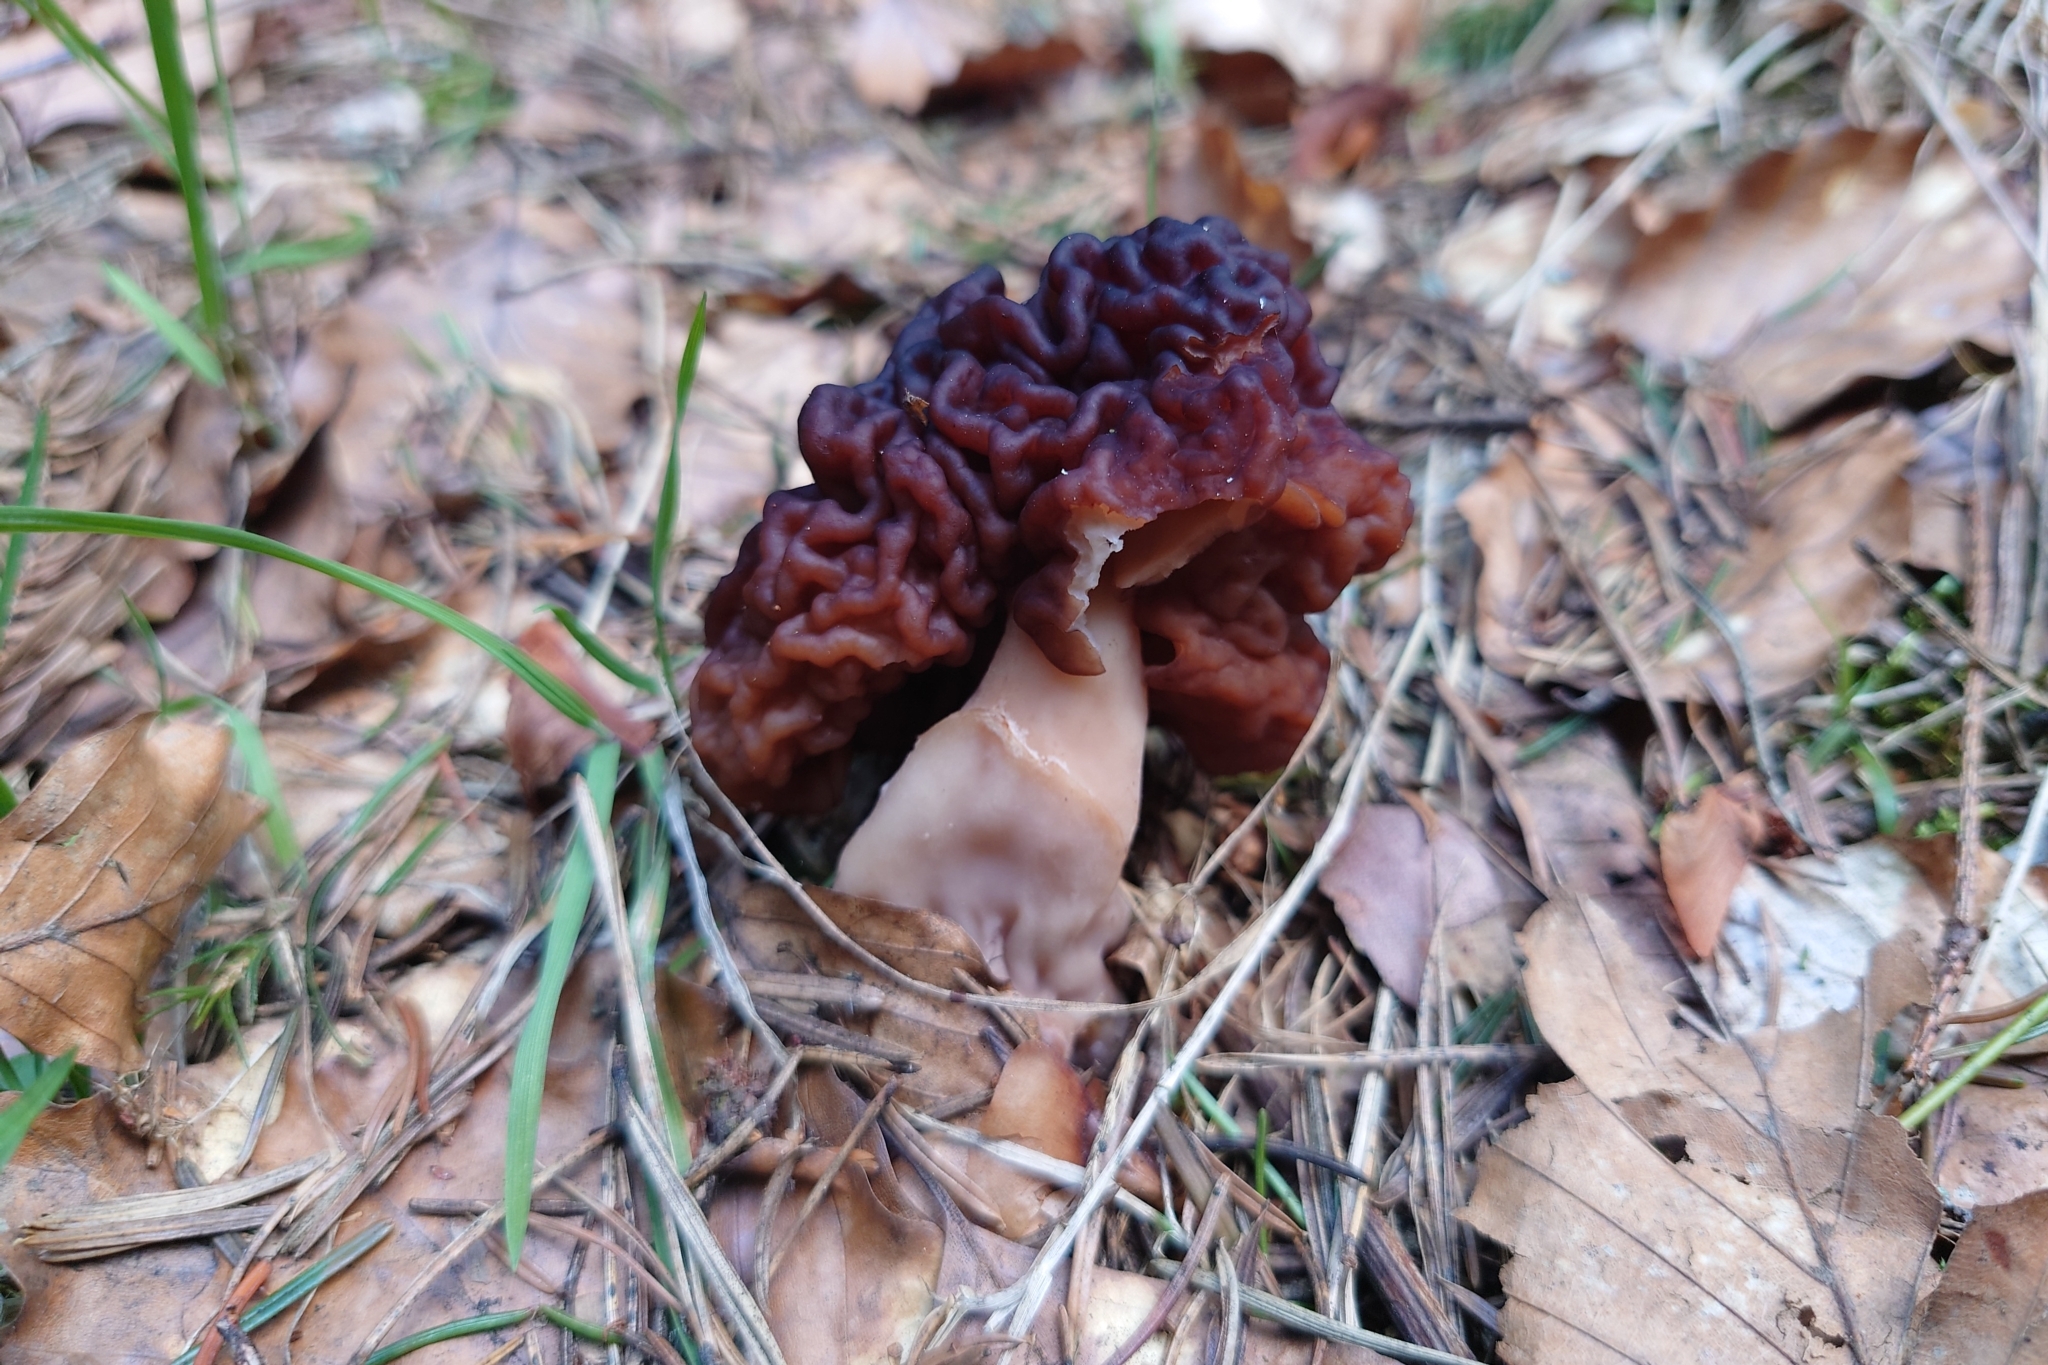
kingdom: Fungi
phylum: Ascomycota
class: Pezizomycetes
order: Pezizales
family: Discinaceae
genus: Gyromitra
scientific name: Gyromitra esculenta
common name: False morel
